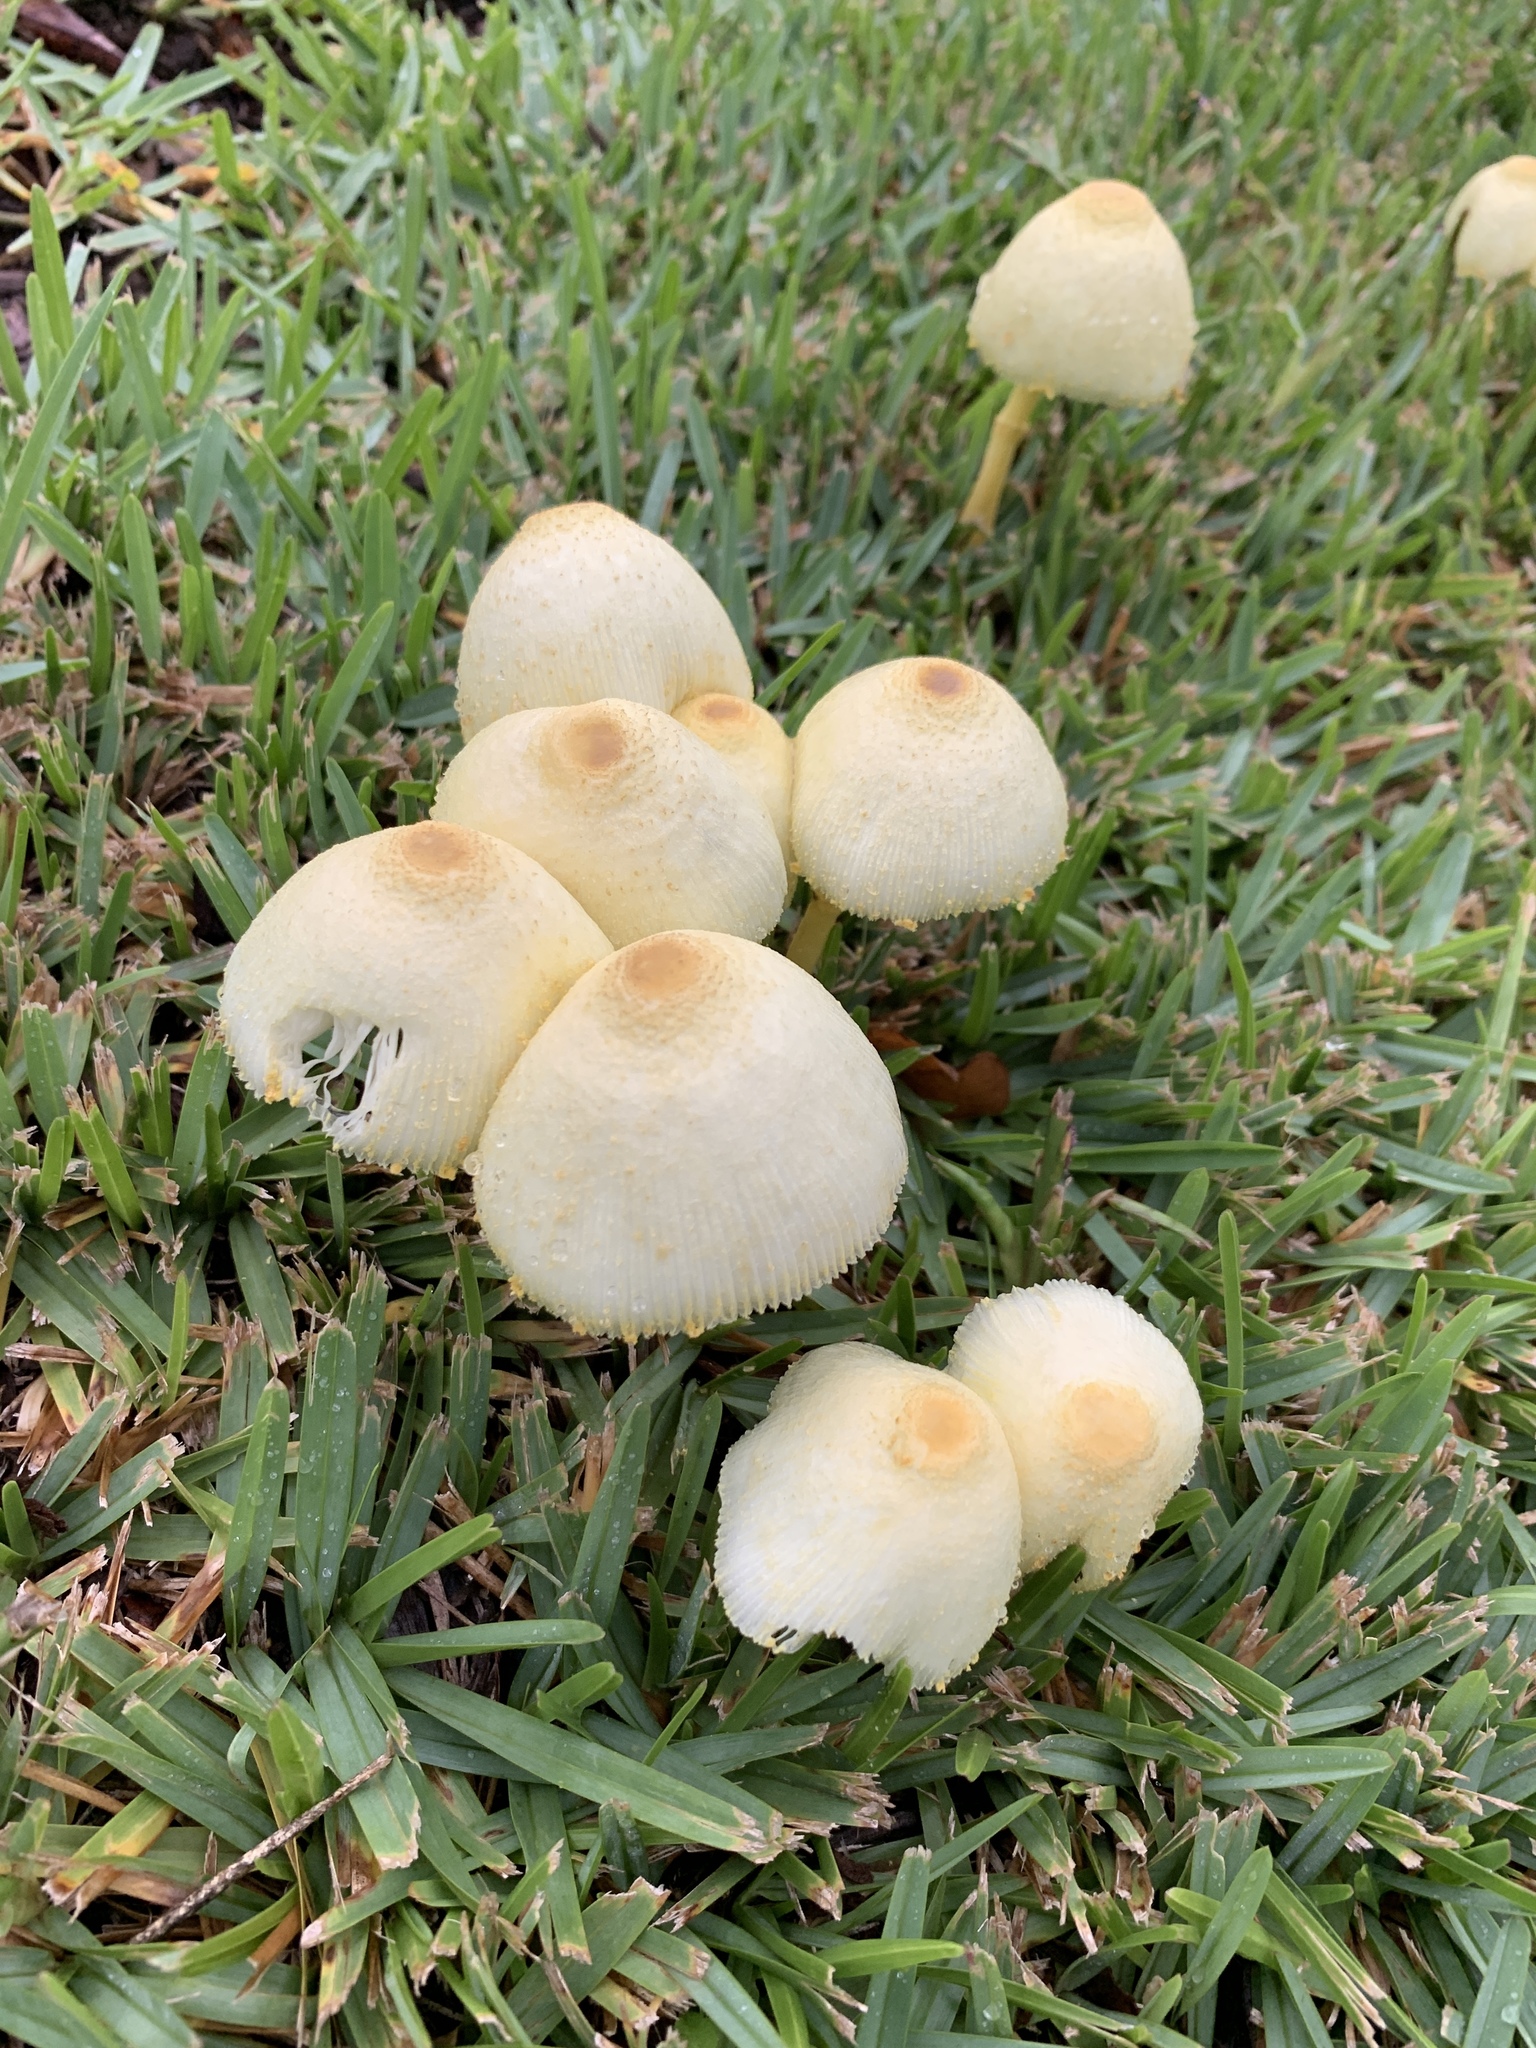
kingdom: Fungi
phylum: Basidiomycota
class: Agaricomycetes
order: Agaricales
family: Agaricaceae
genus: Leucocoprinus
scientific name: Leucocoprinus birnbaumii
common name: Plantpot dapperling
